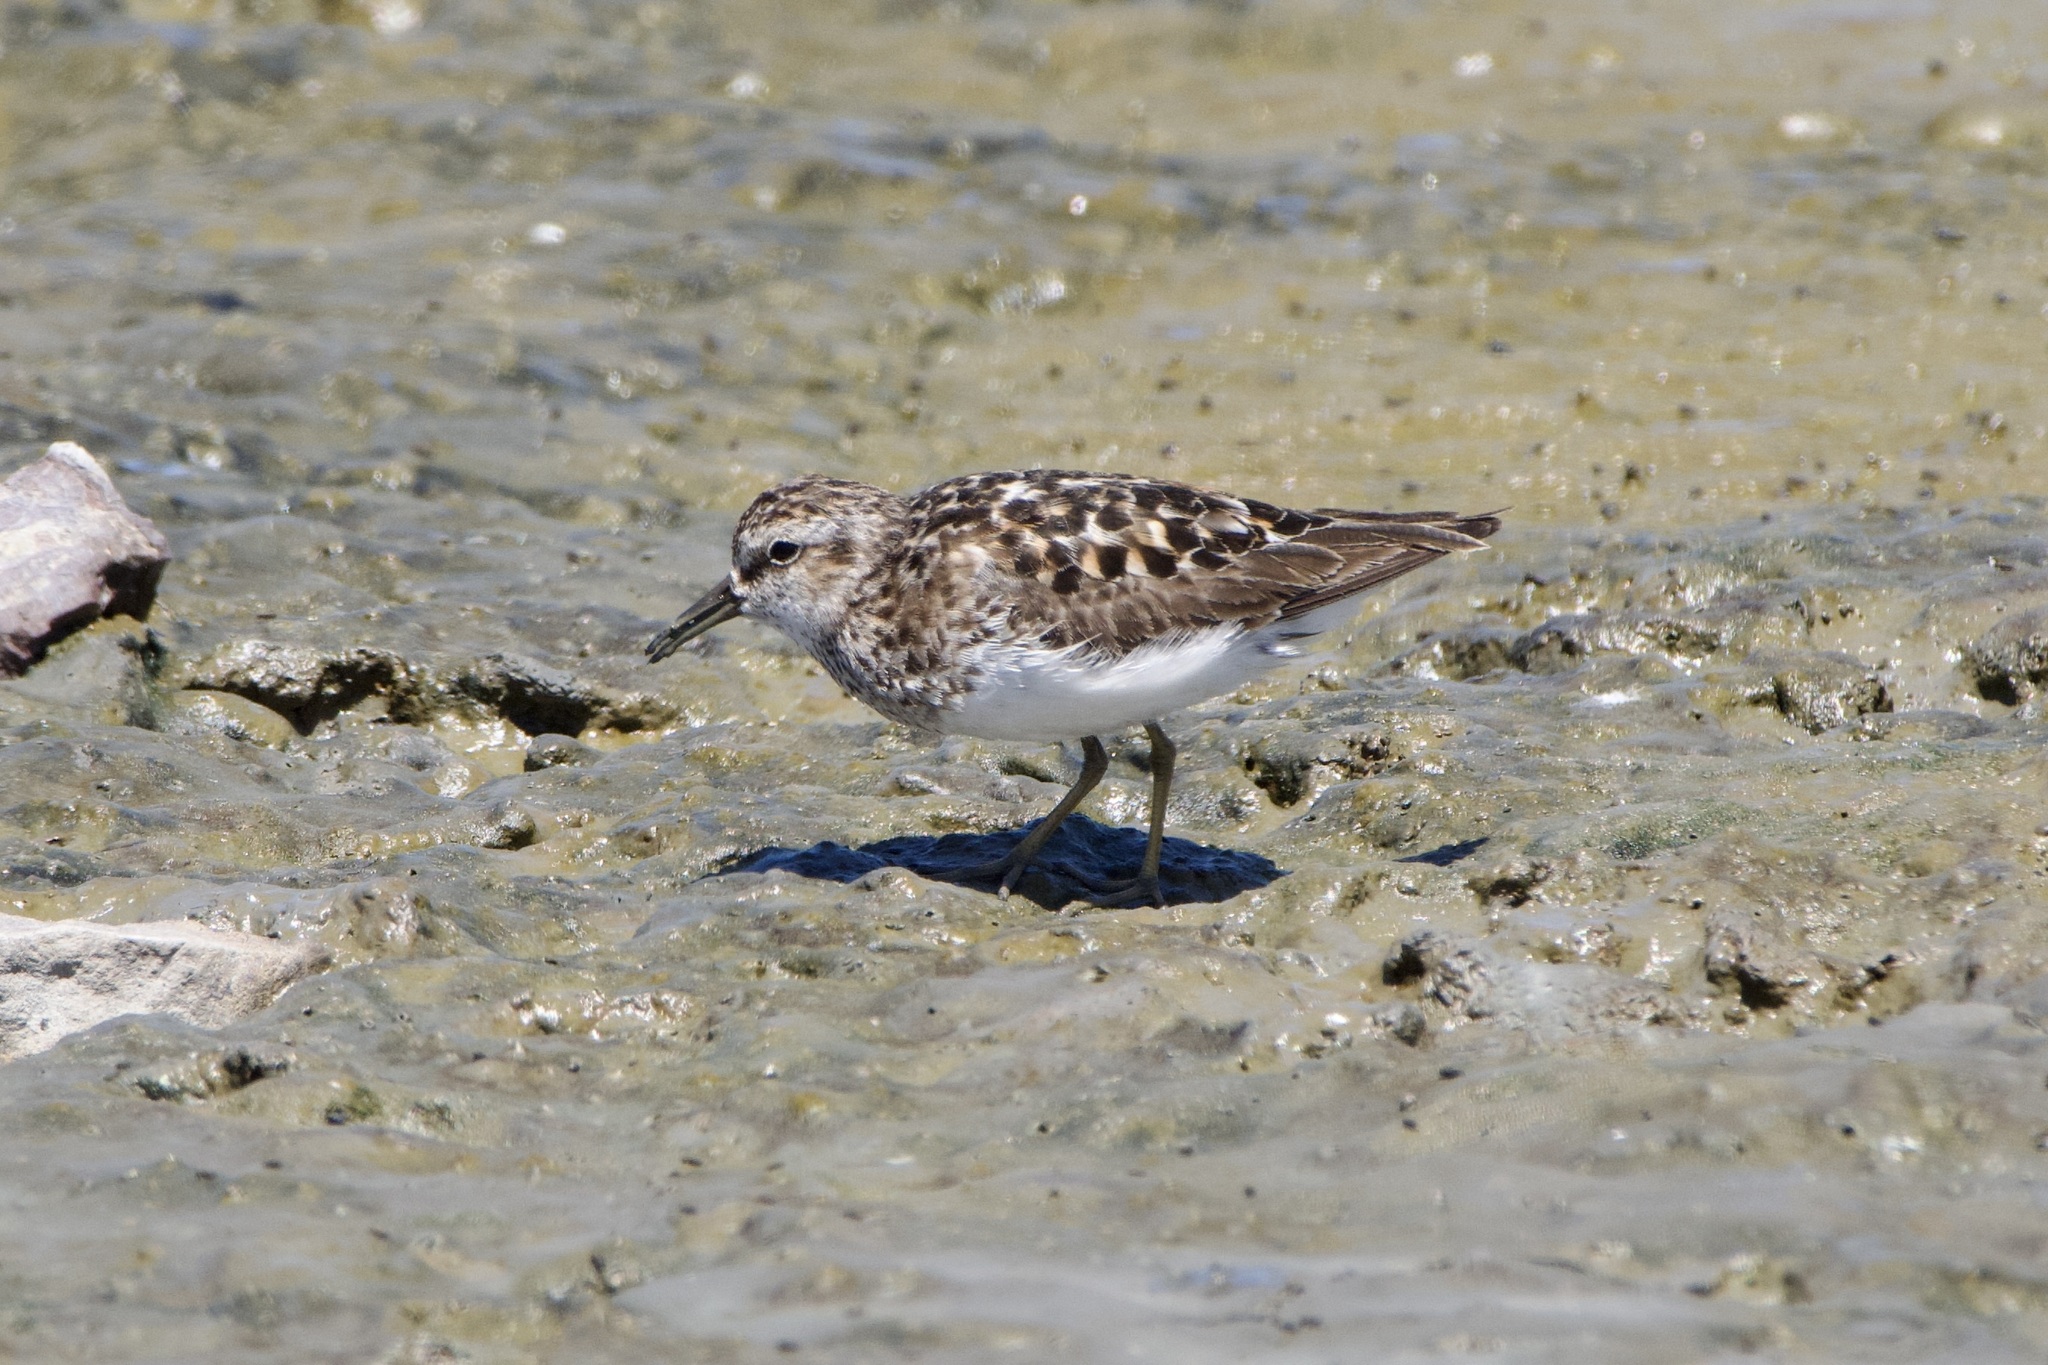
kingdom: Animalia
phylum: Chordata
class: Aves
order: Charadriiformes
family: Scolopacidae
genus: Calidris
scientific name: Calidris minutilla
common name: Least sandpiper
